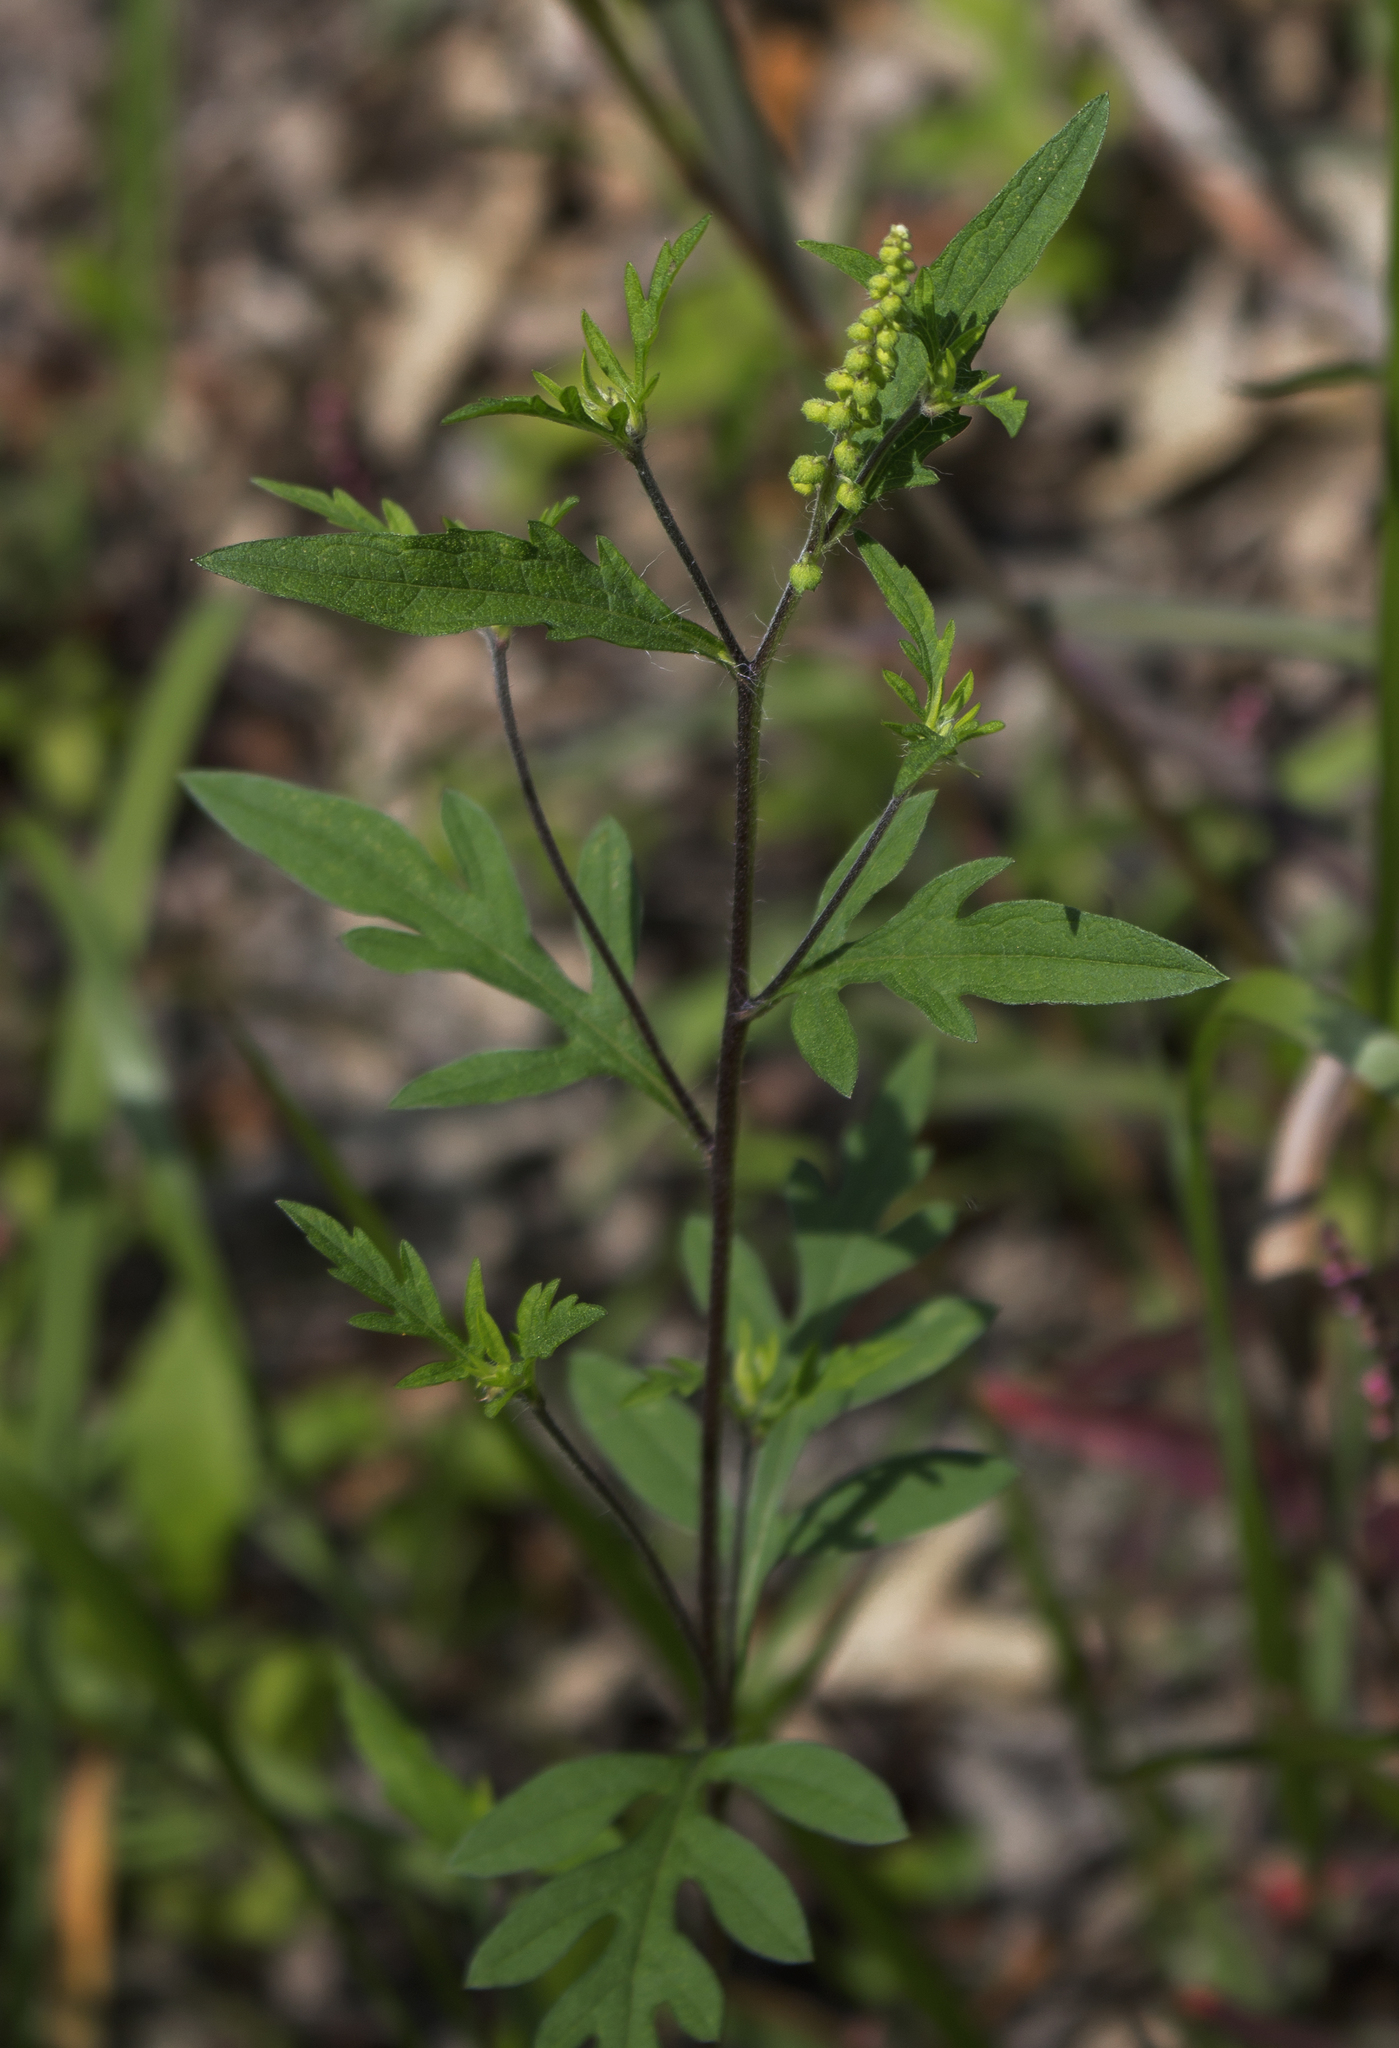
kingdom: Plantae
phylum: Tracheophyta
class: Magnoliopsida
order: Asterales
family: Asteraceae
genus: Ambrosia
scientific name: Ambrosia artemisiifolia
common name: Annual ragweed
